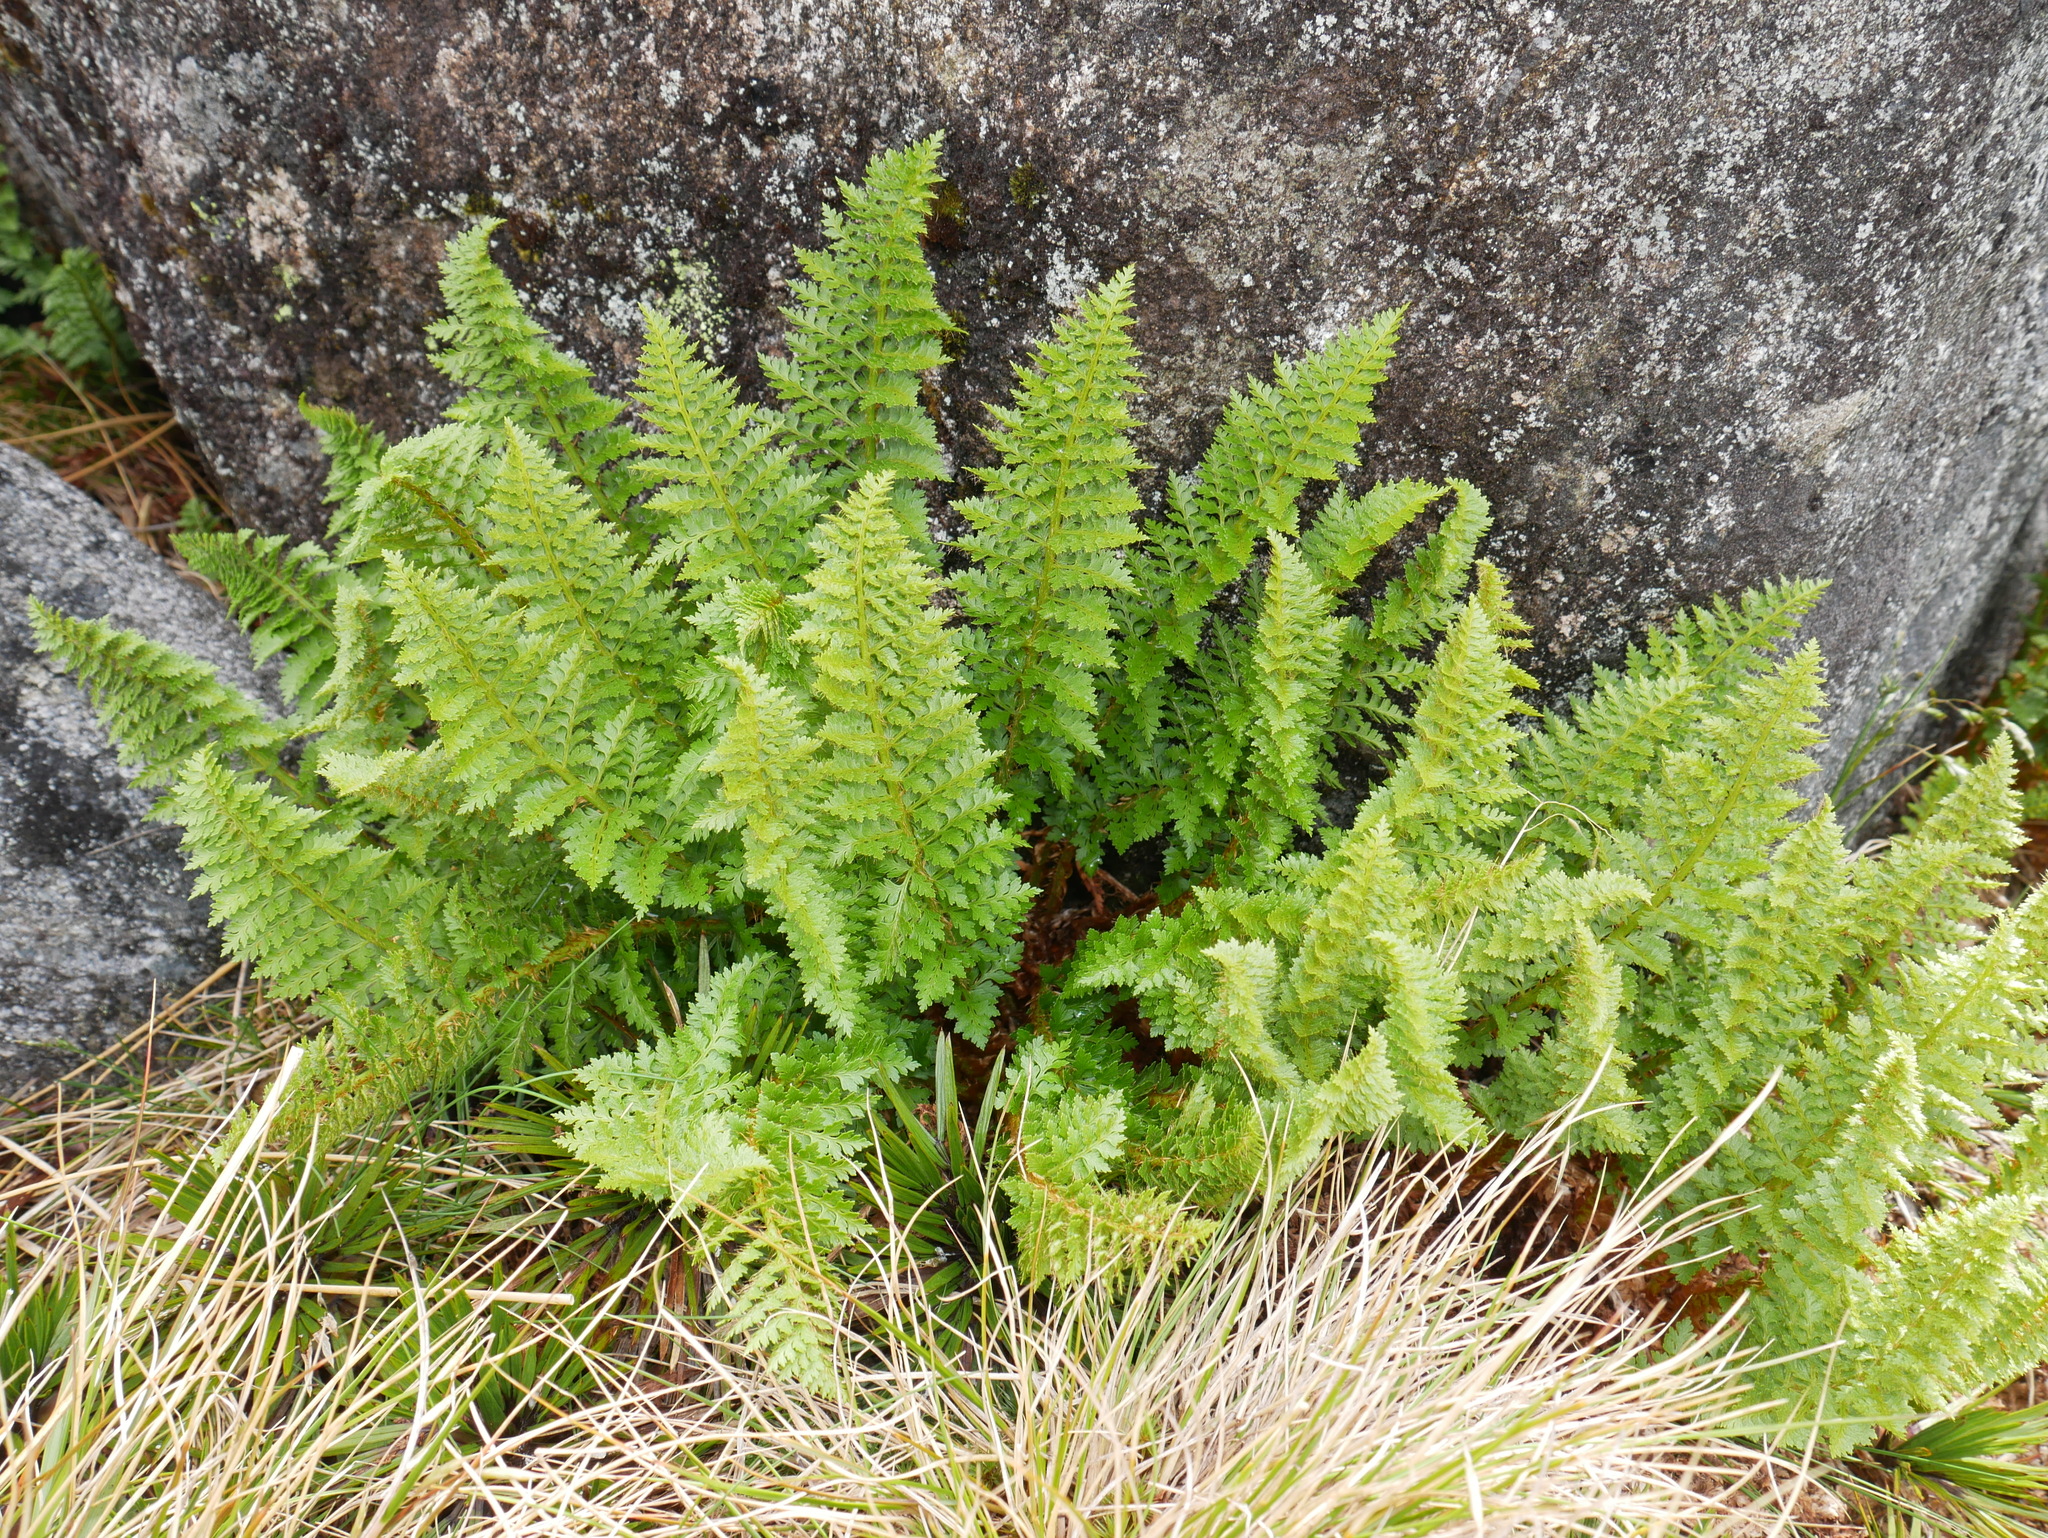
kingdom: Plantae
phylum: Tracheophyta
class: Polypodiopsida
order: Polypodiales
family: Dryopteridaceae
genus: Polystichum
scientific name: Polystichum cystostegia
